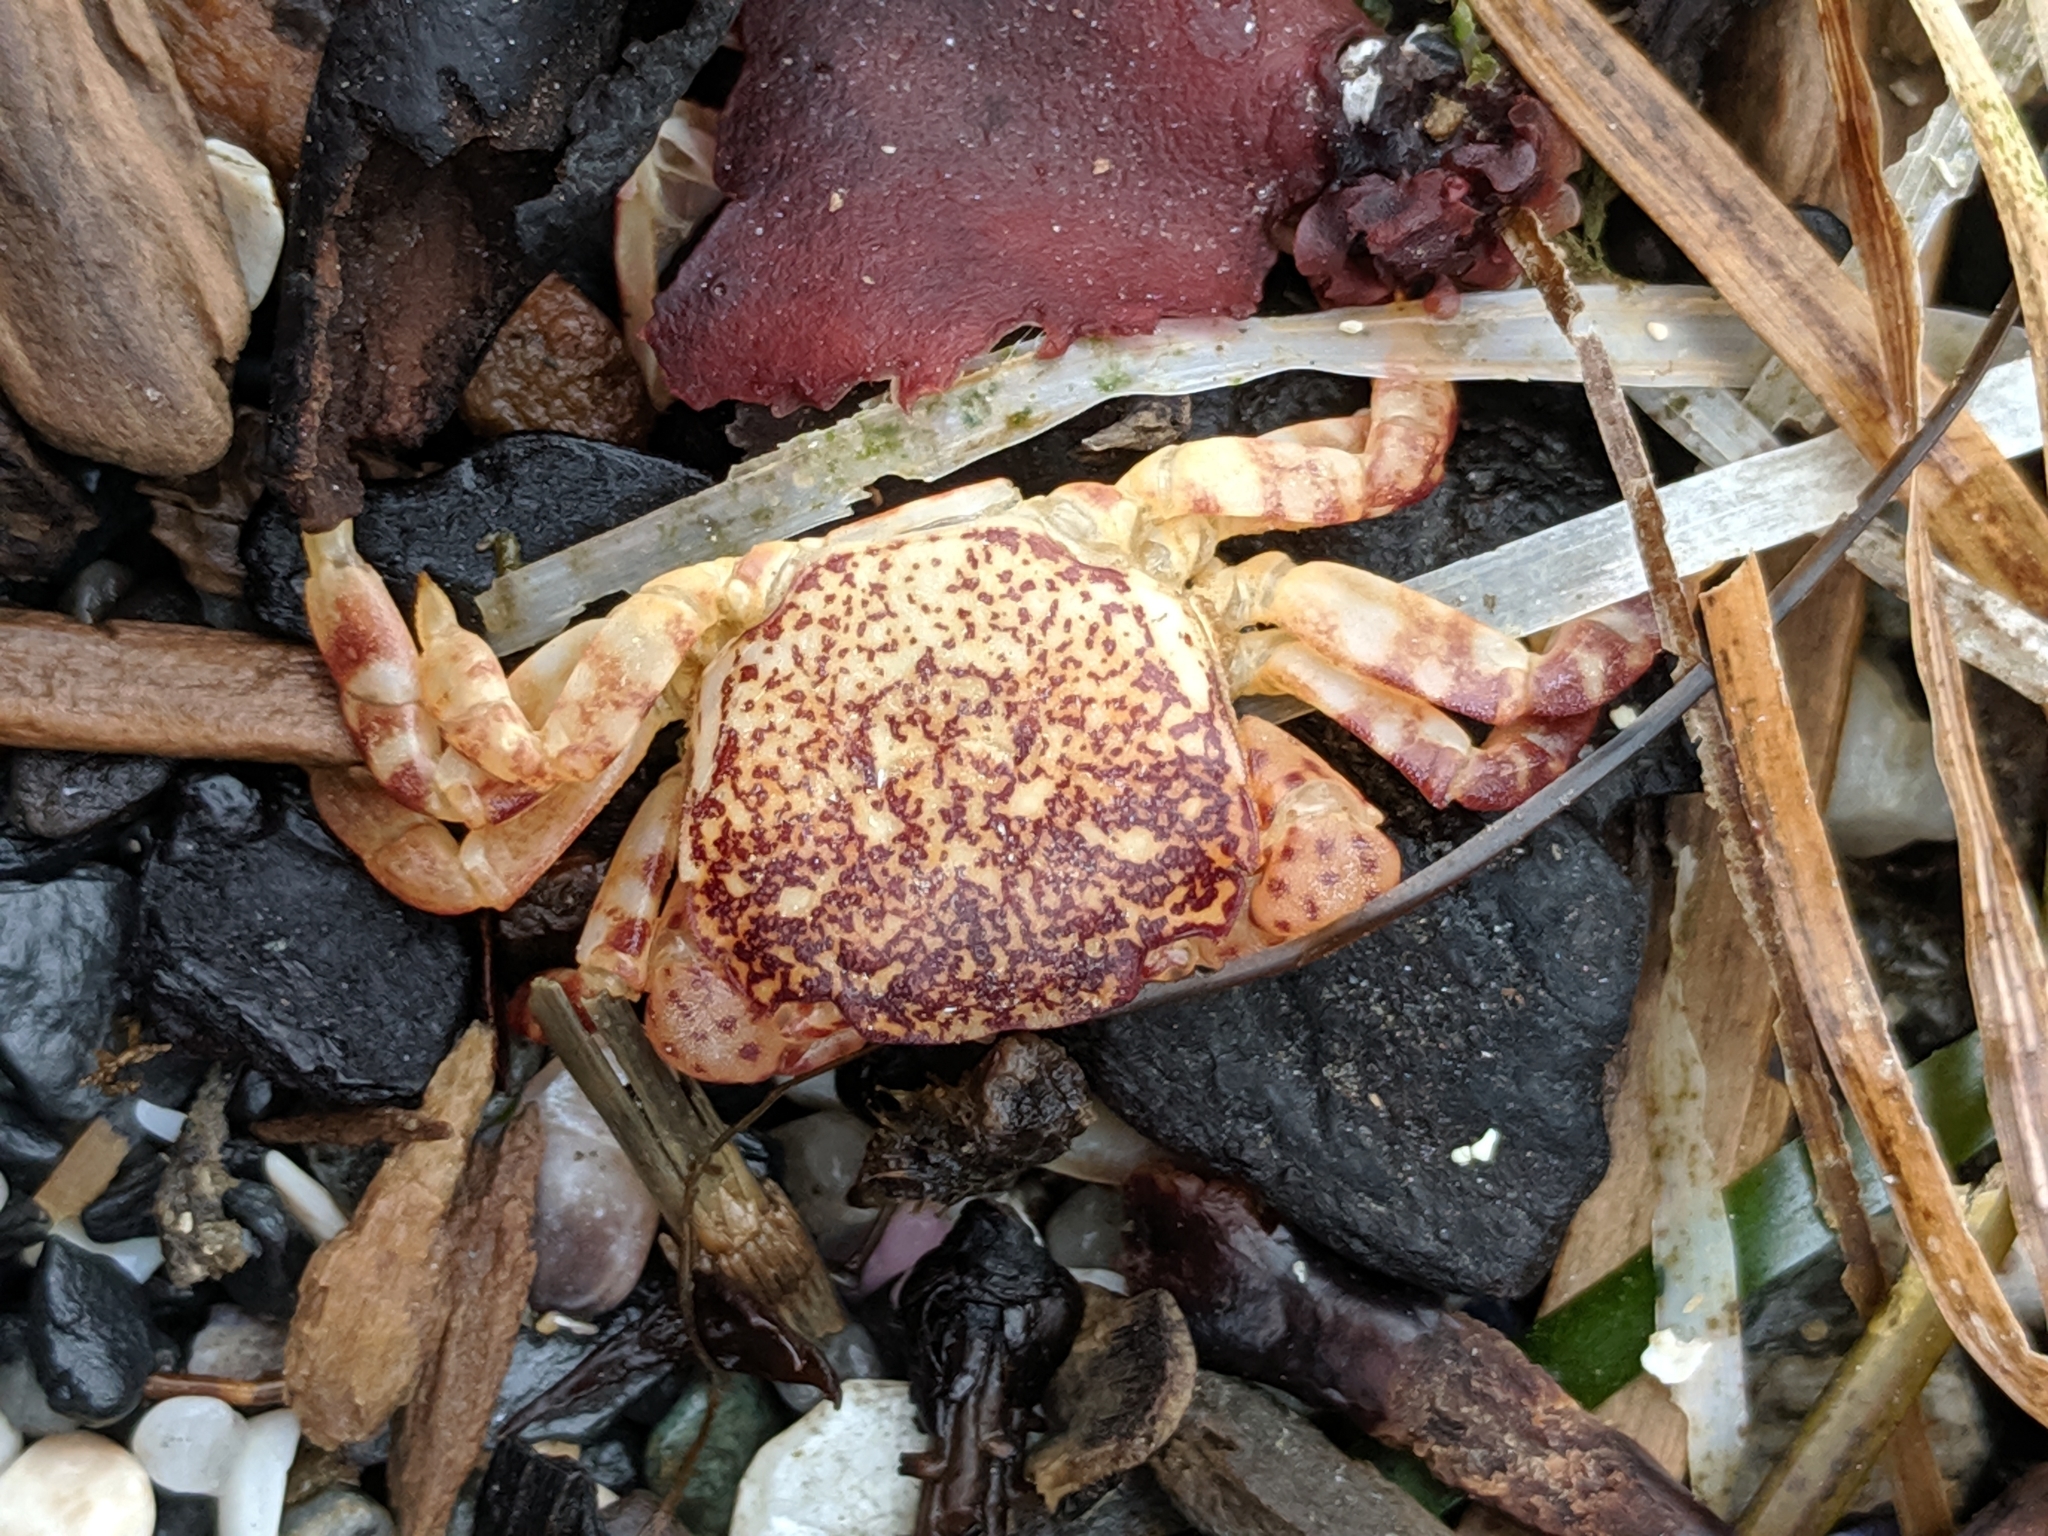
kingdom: Animalia
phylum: Arthropoda
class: Malacostraca
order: Decapoda
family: Varunidae
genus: Hemigrapsus
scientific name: Hemigrapsus nudus
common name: Purple shore crab
